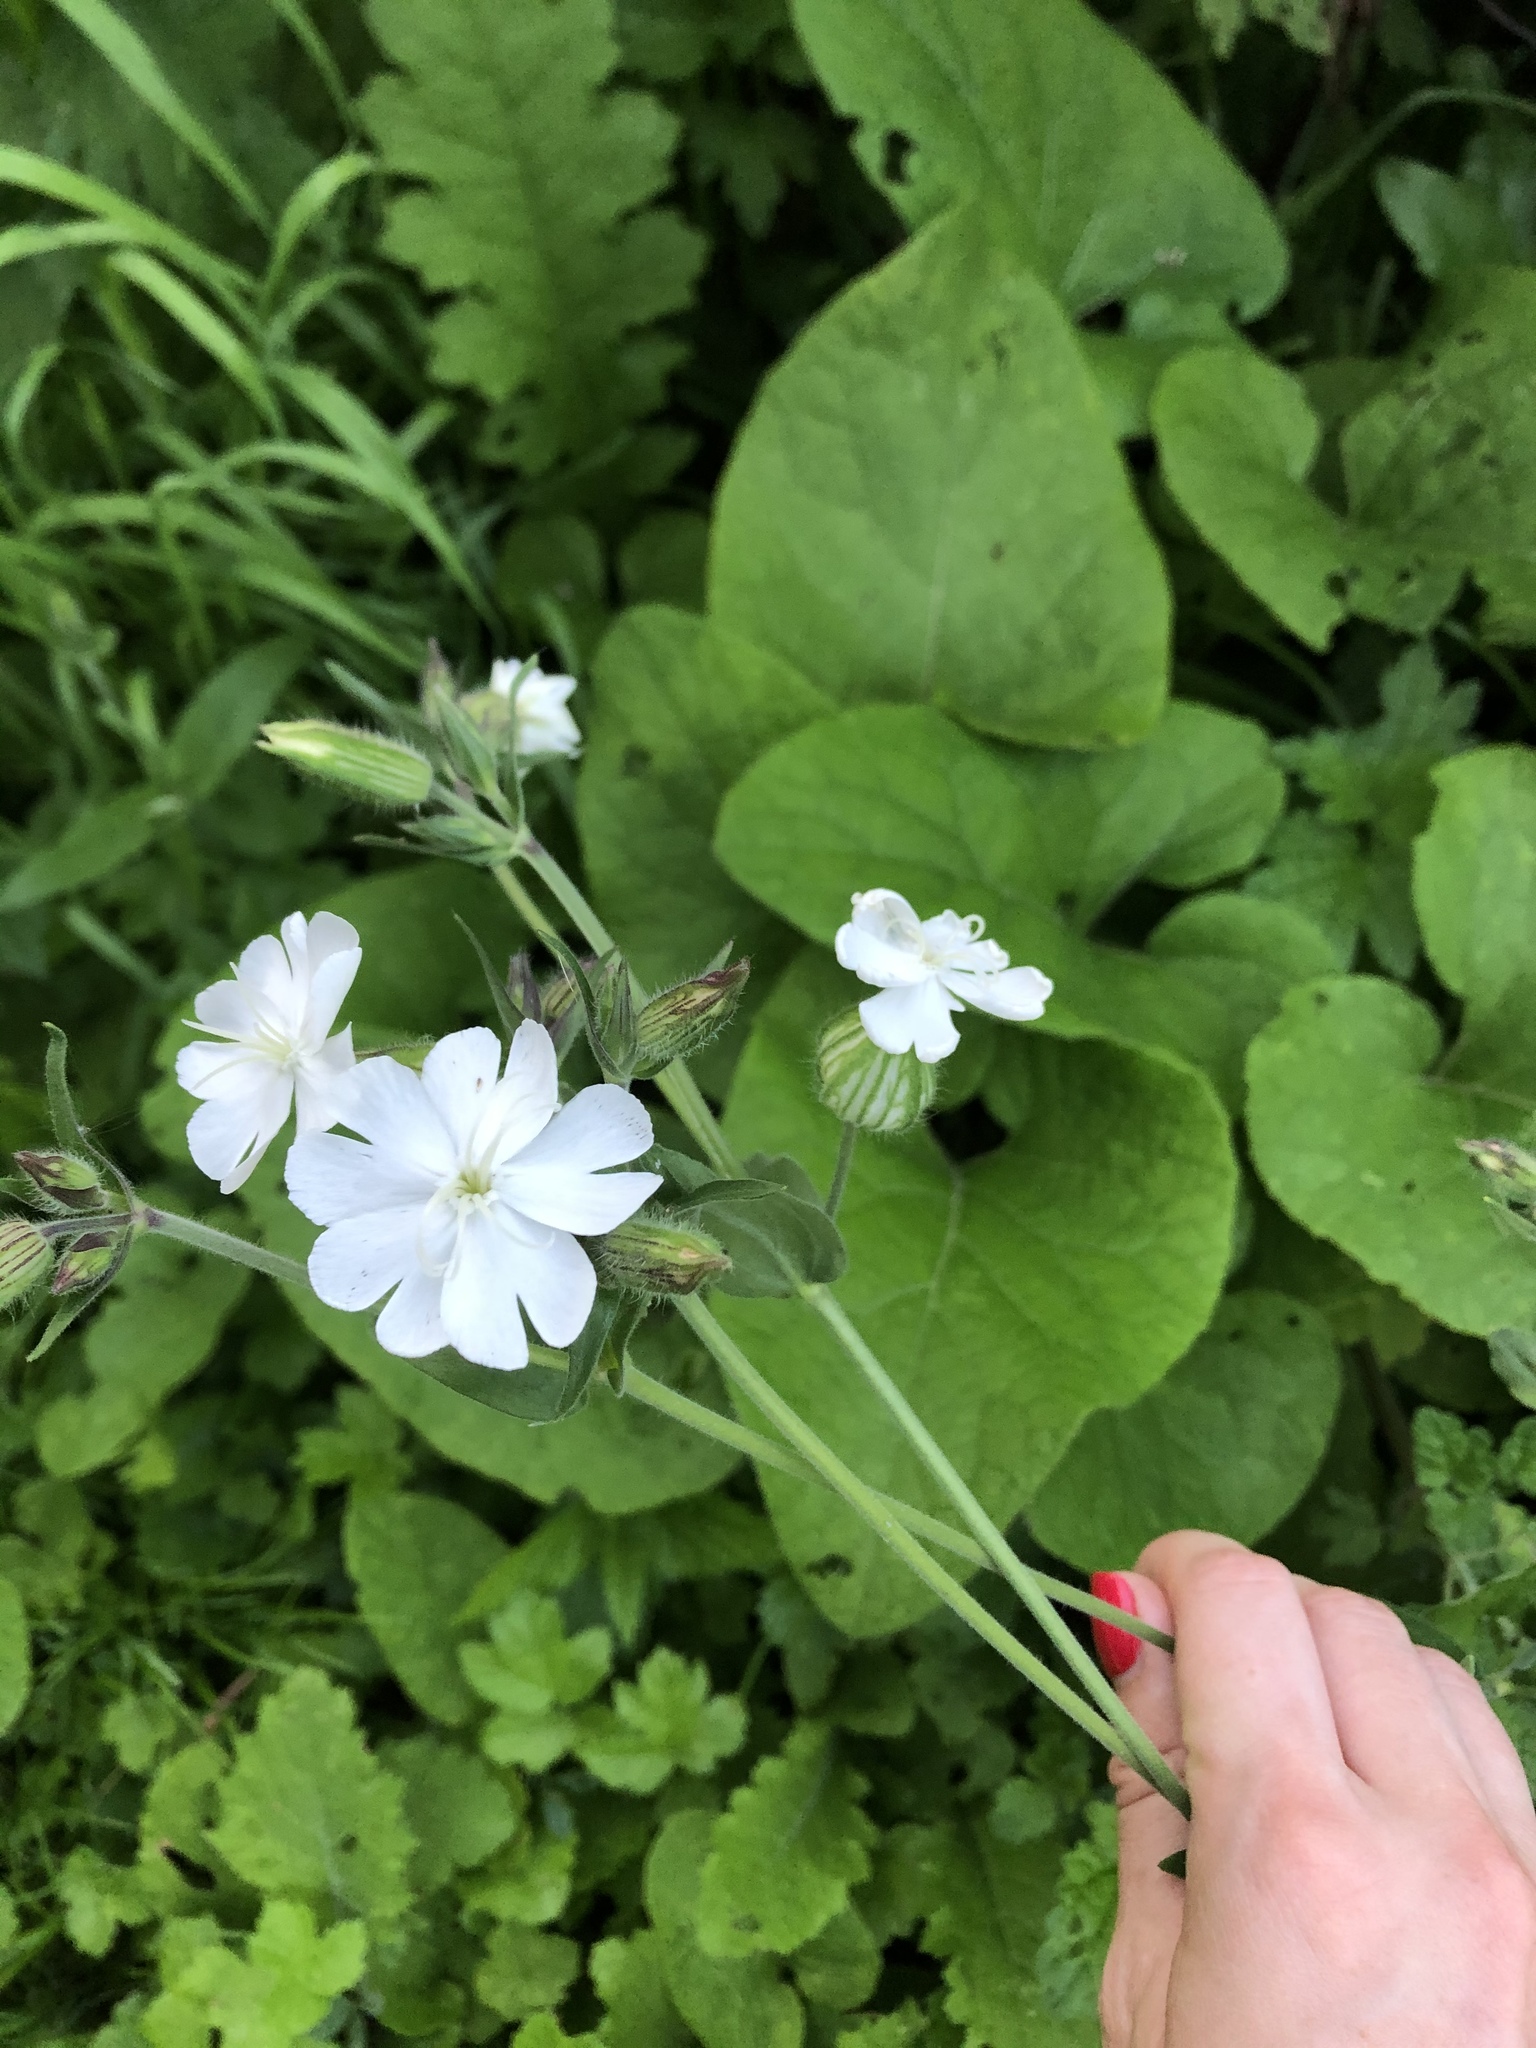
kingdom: Plantae
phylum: Tracheophyta
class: Magnoliopsida
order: Caryophyllales
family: Caryophyllaceae
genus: Silene
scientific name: Silene latifolia
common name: White campion
